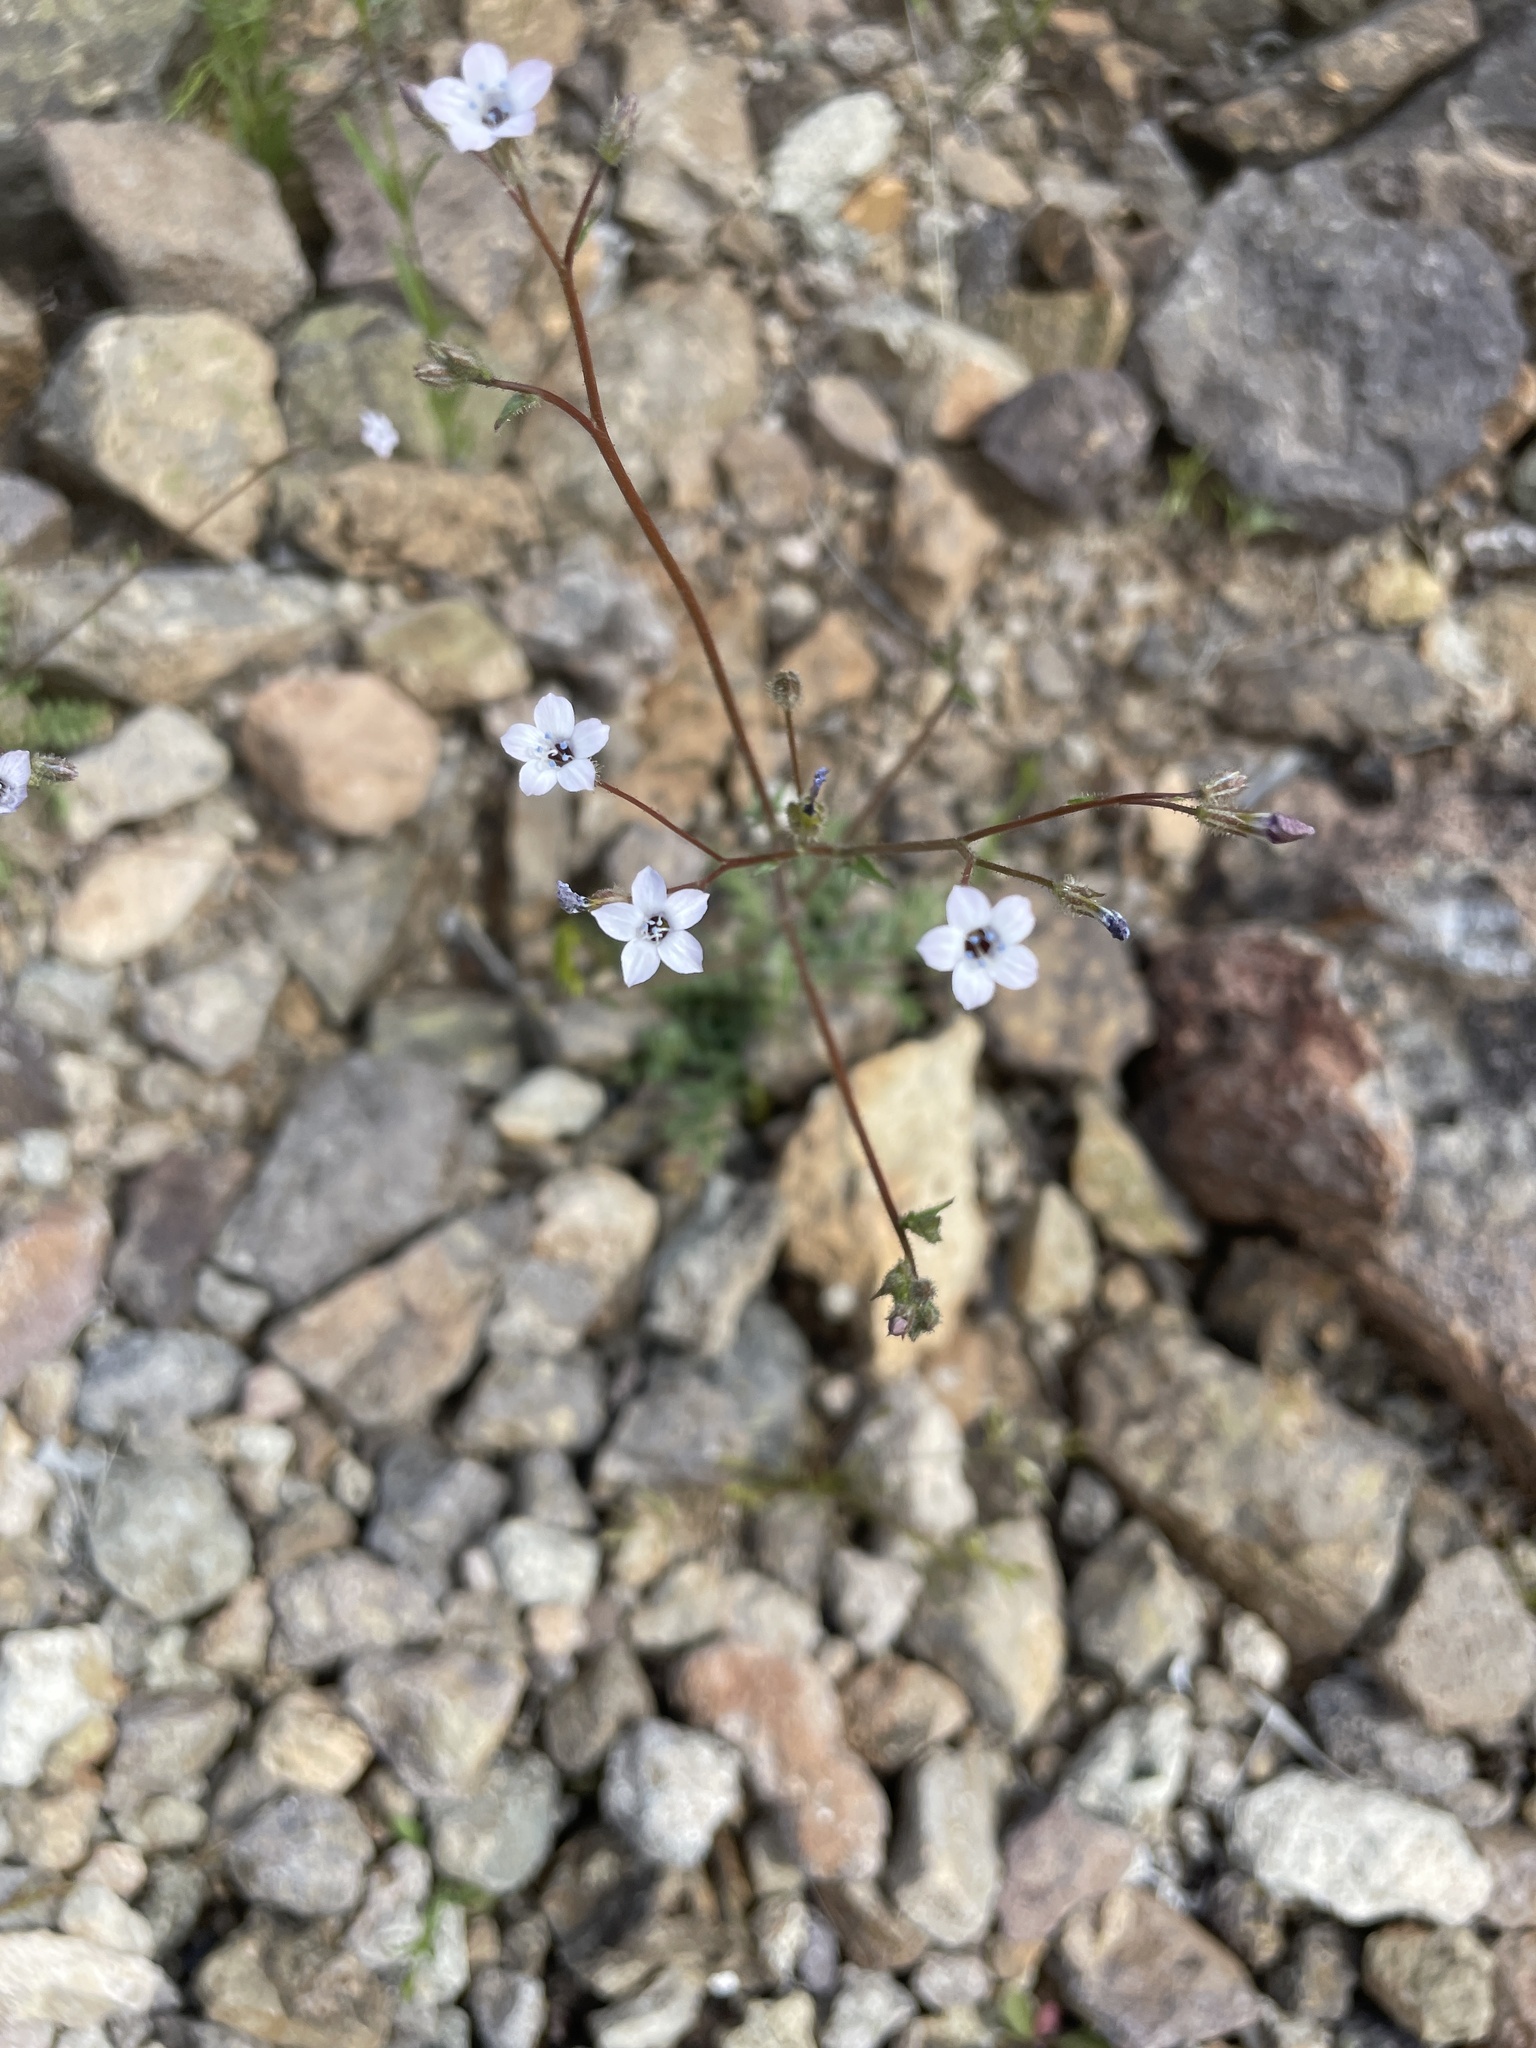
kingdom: Plantae
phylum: Tracheophyta
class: Magnoliopsida
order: Ericales
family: Polemoniaceae
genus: Gilia
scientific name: Gilia stellata
